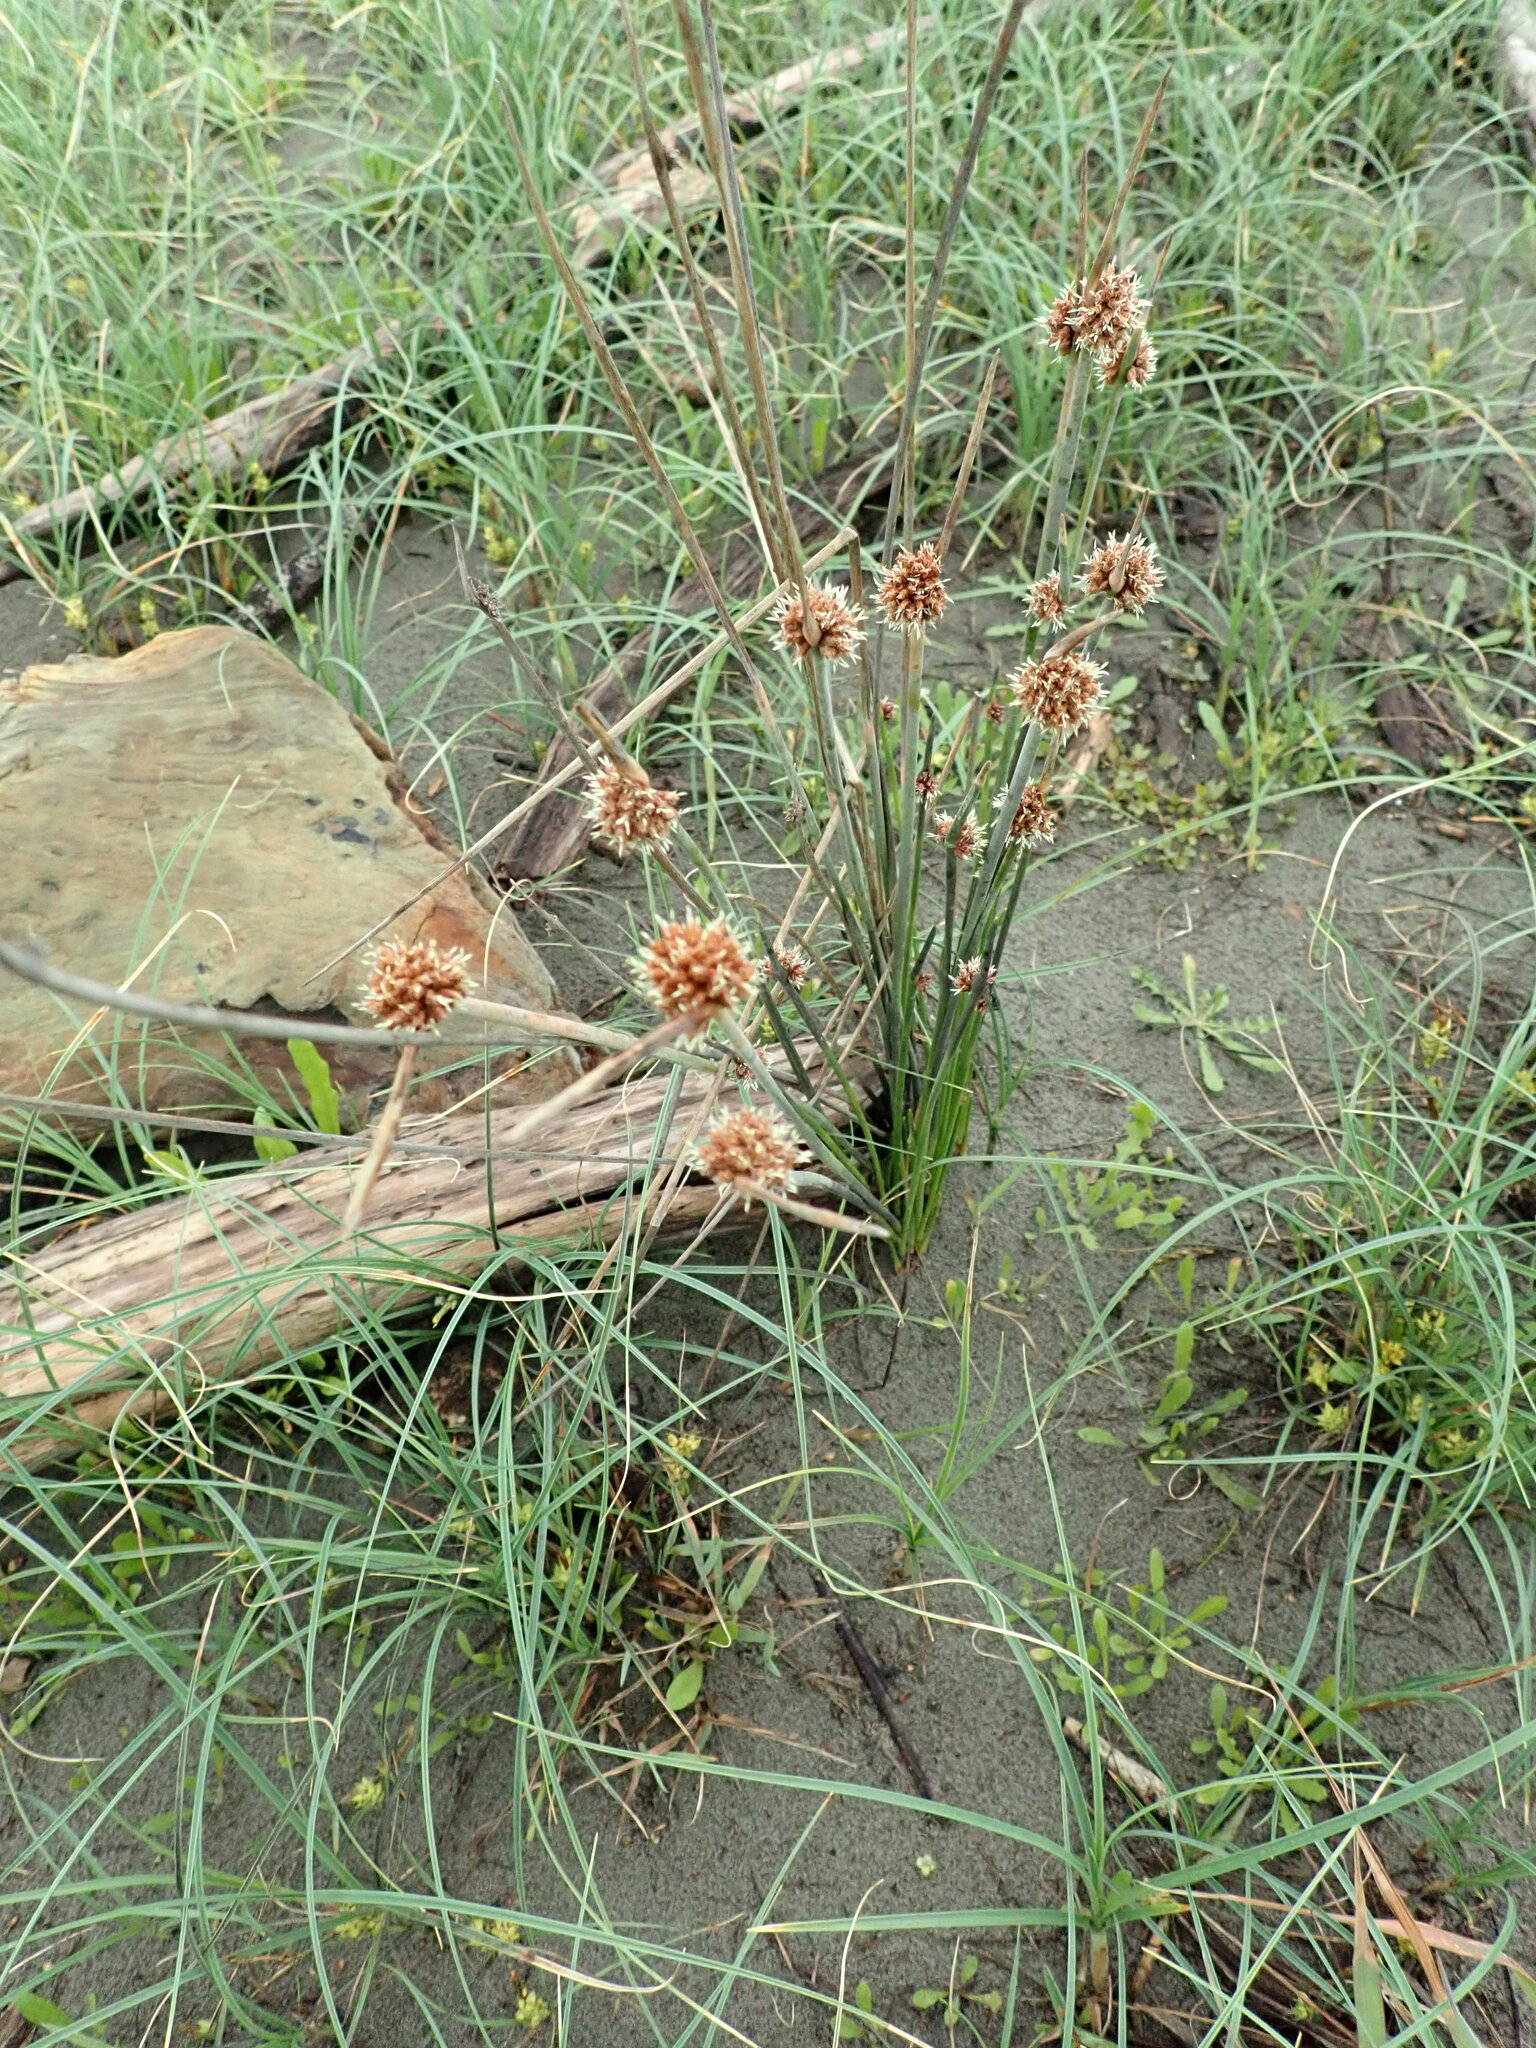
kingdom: Plantae
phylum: Tracheophyta
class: Liliopsida
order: Poales
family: Cyperaceae
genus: Ficinia
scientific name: Ficinia nodosa
